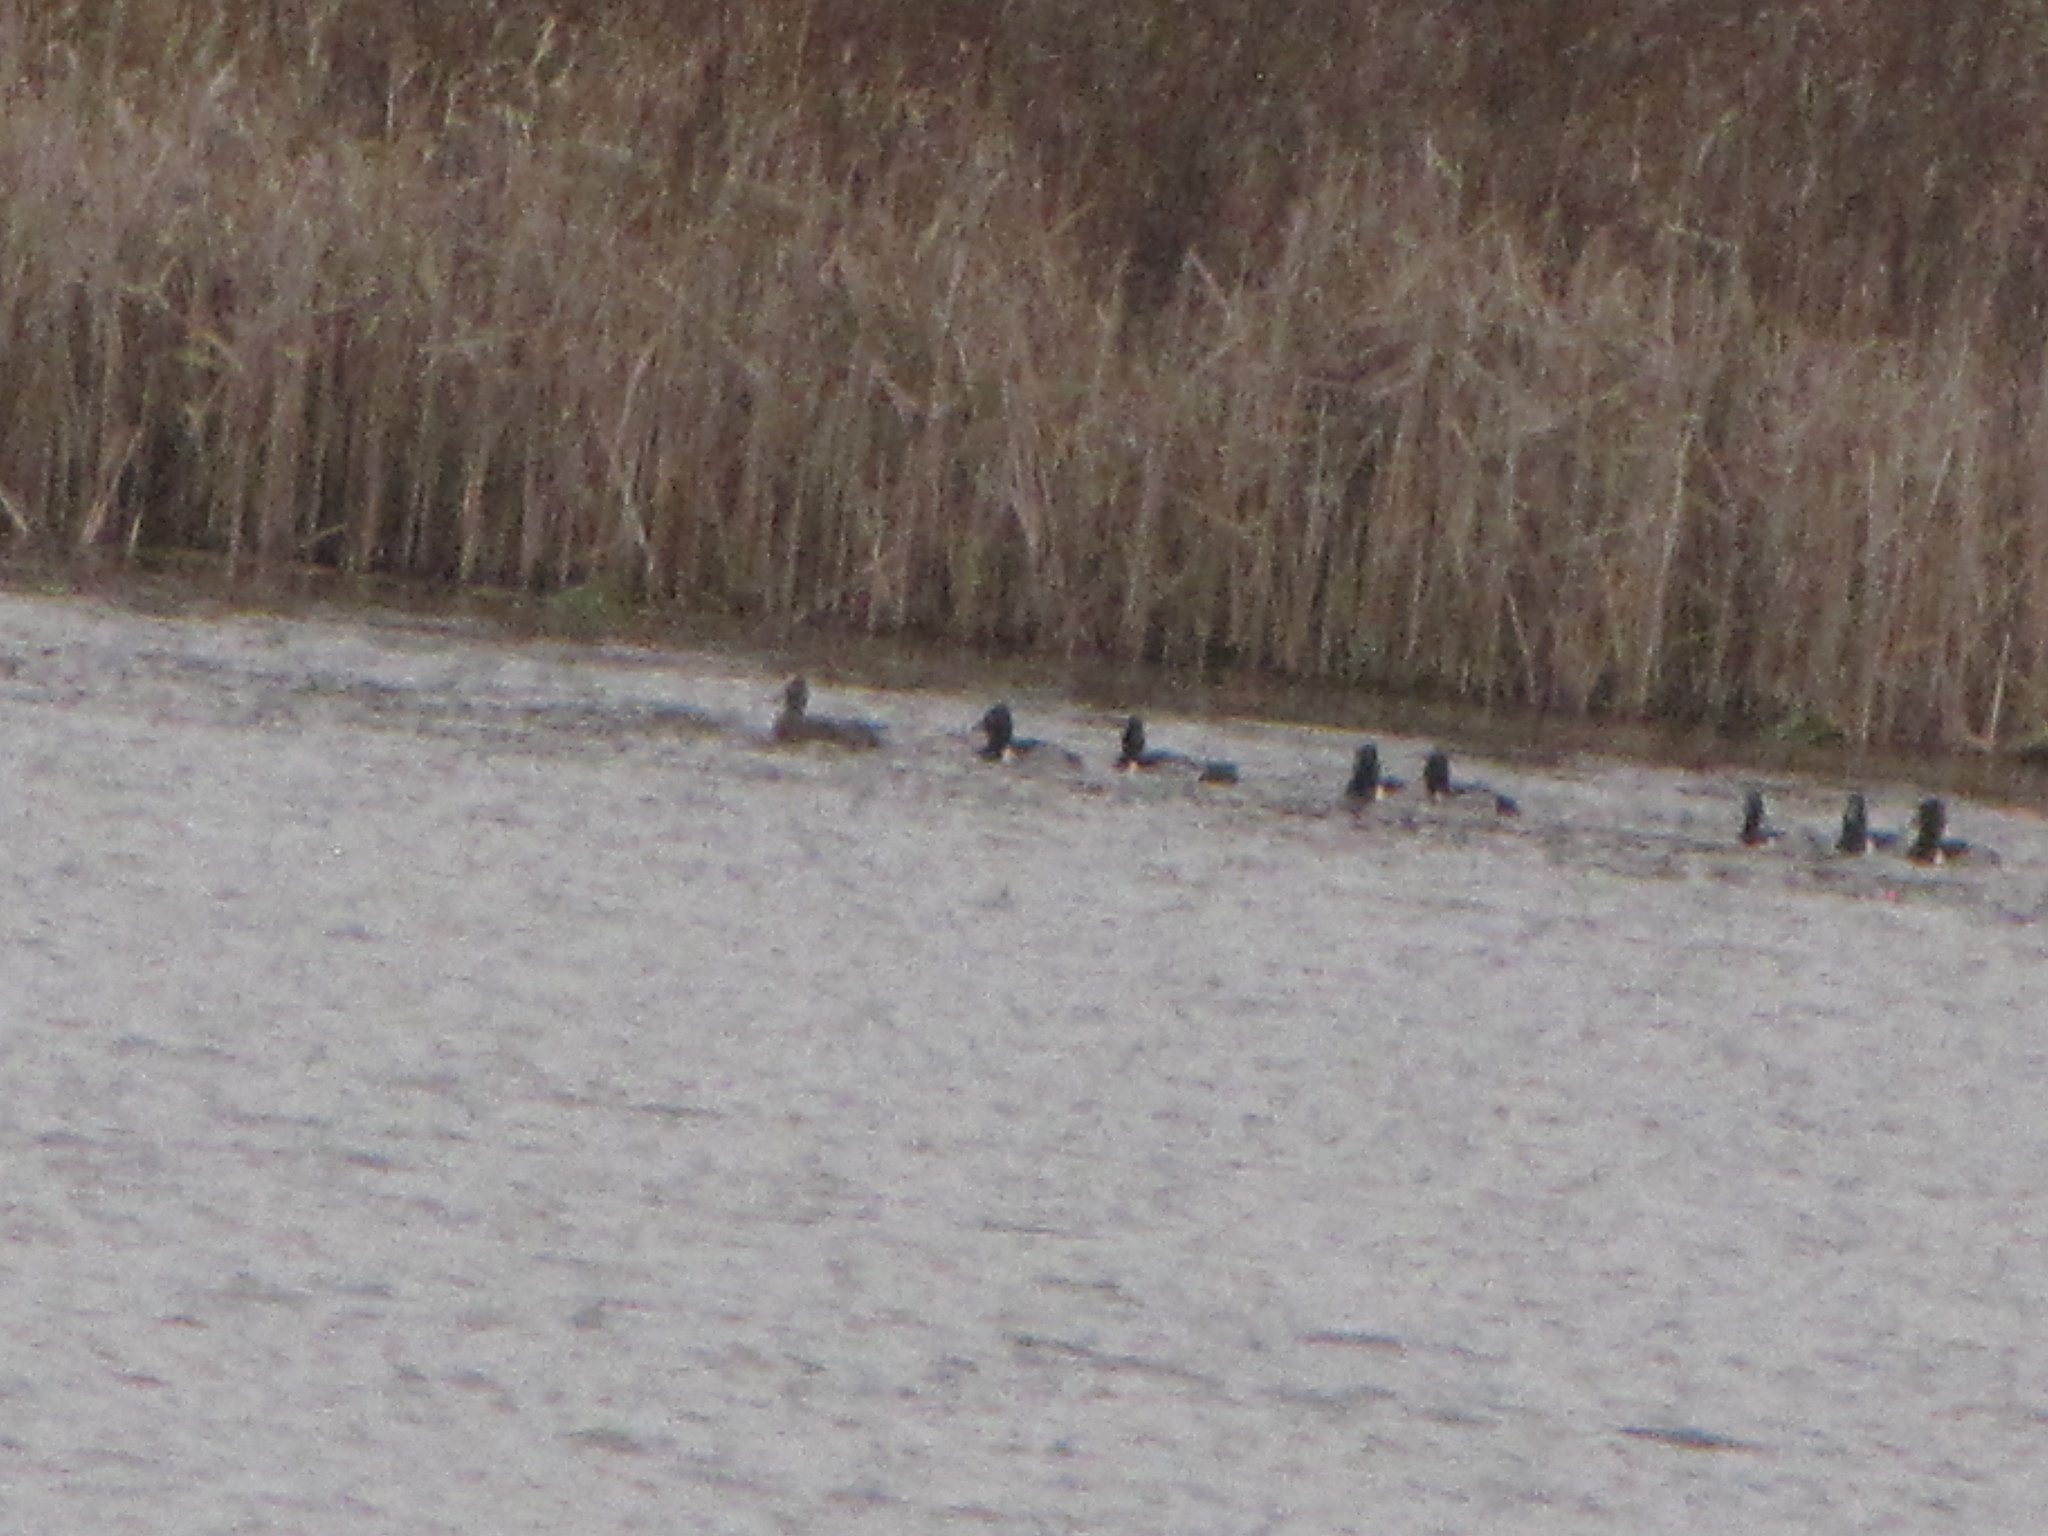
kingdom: Animalia
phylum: Chordata
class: Aves
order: Anseriformes
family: Anatidae
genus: Aythya
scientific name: Aythya collaris
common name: Ring-necked duck
